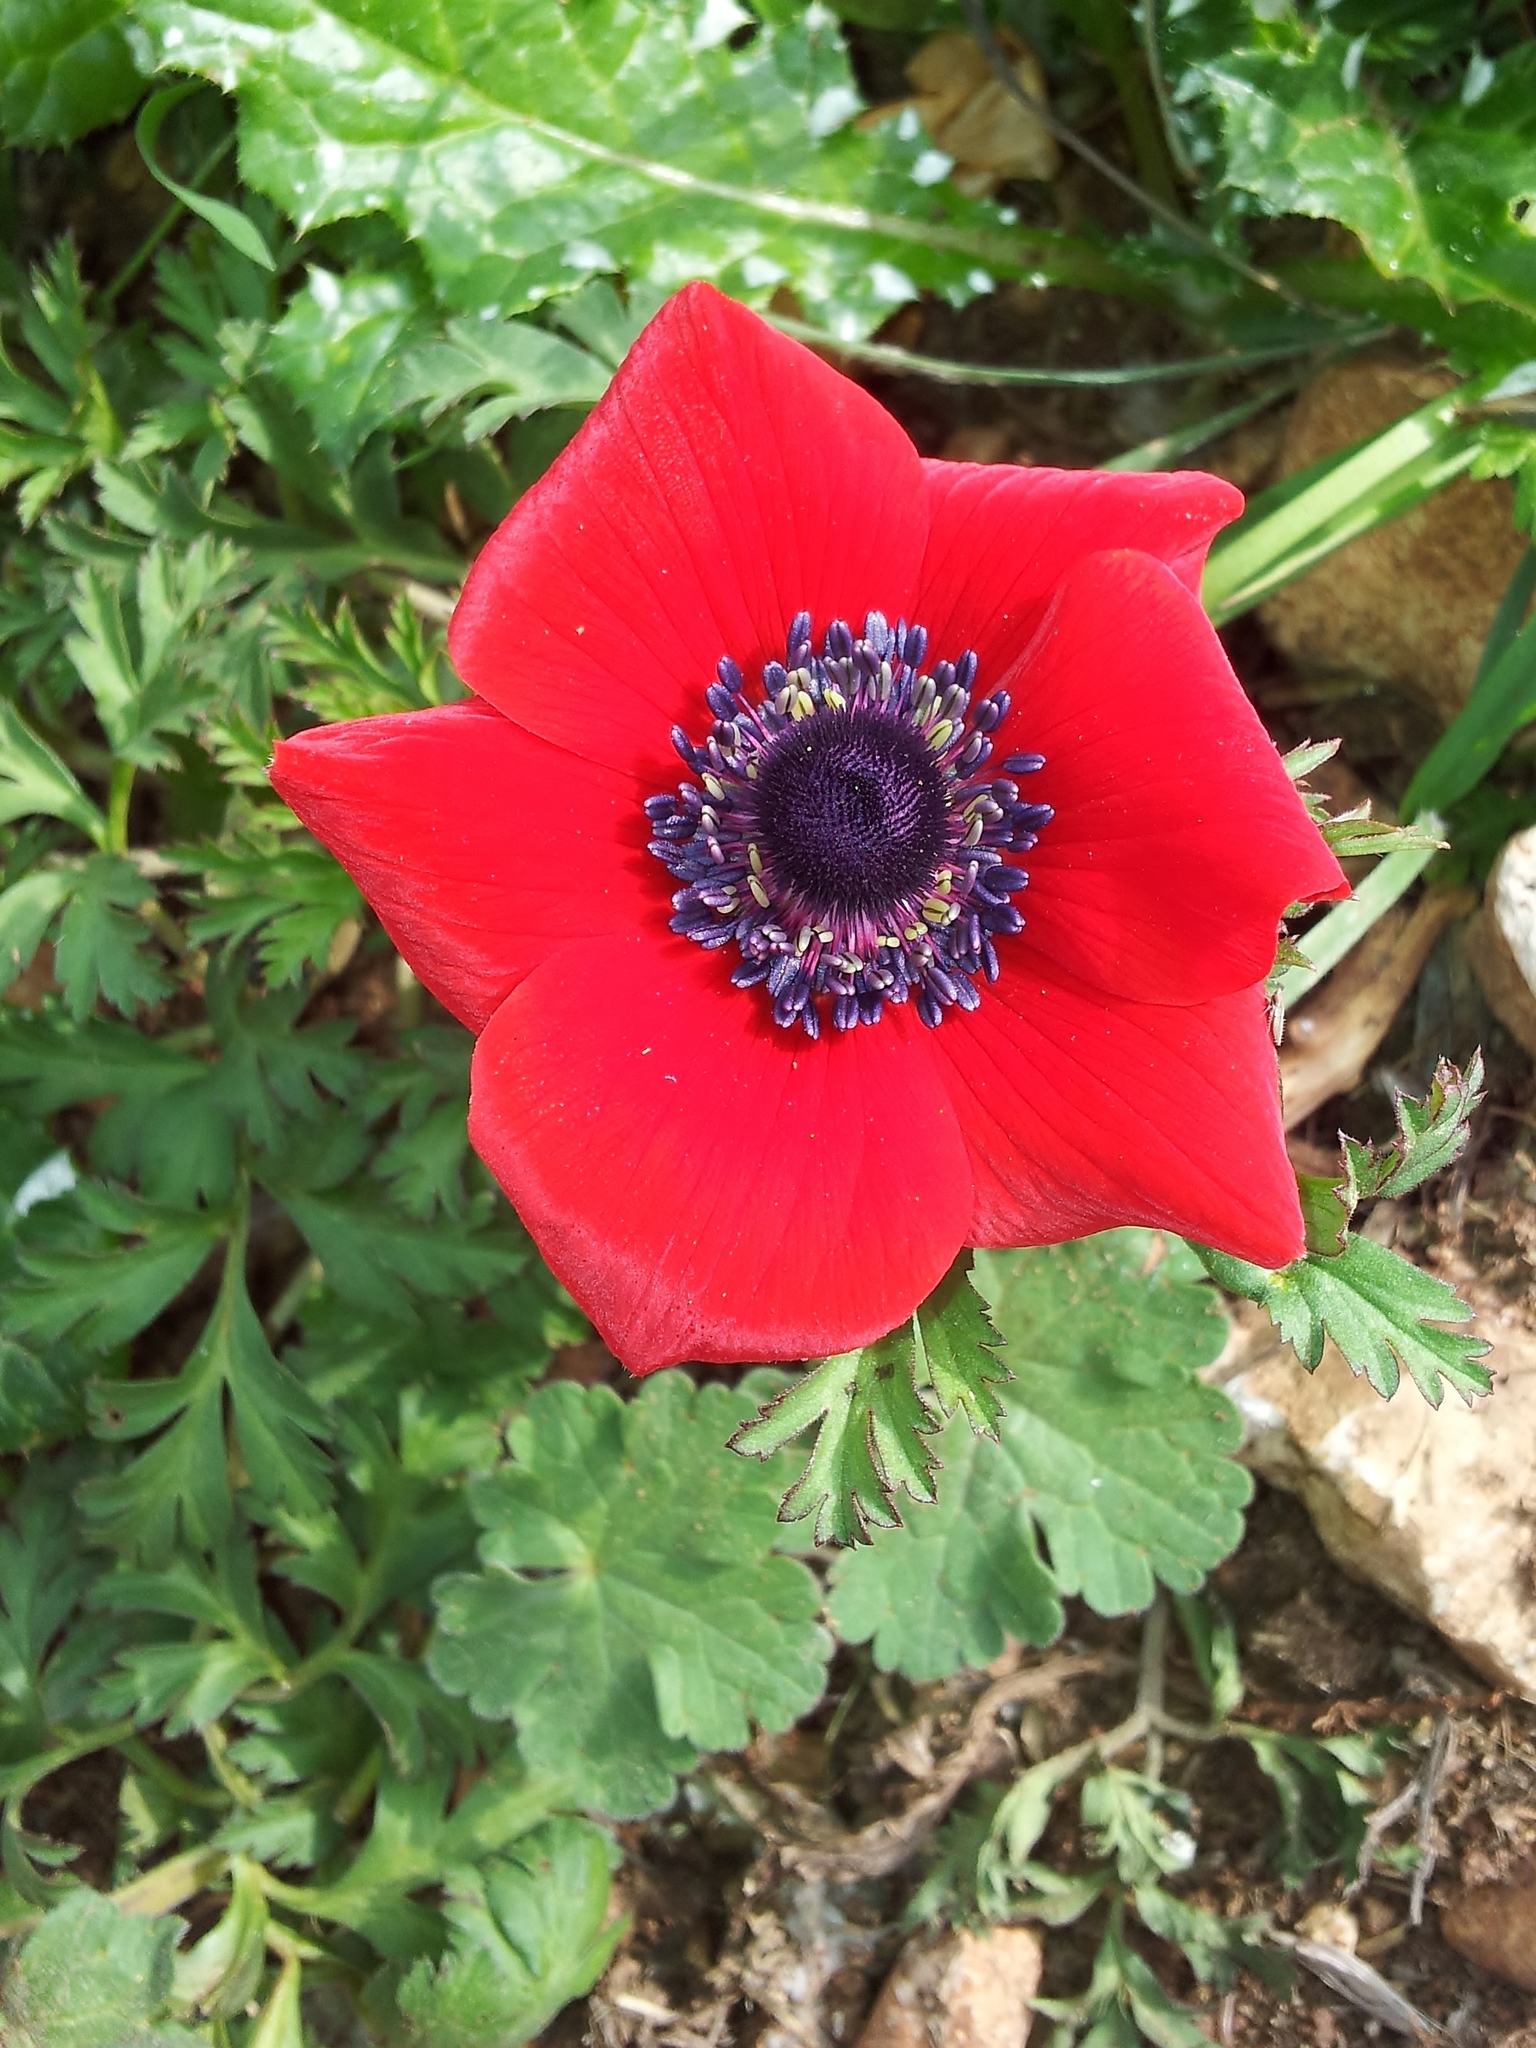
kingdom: Plantae
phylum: Tracheophyta
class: Magnoliopsida
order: Ranunculales
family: Ranunculaceae
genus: Anemone
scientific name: Anemone coronaria
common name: Poppy anemone
